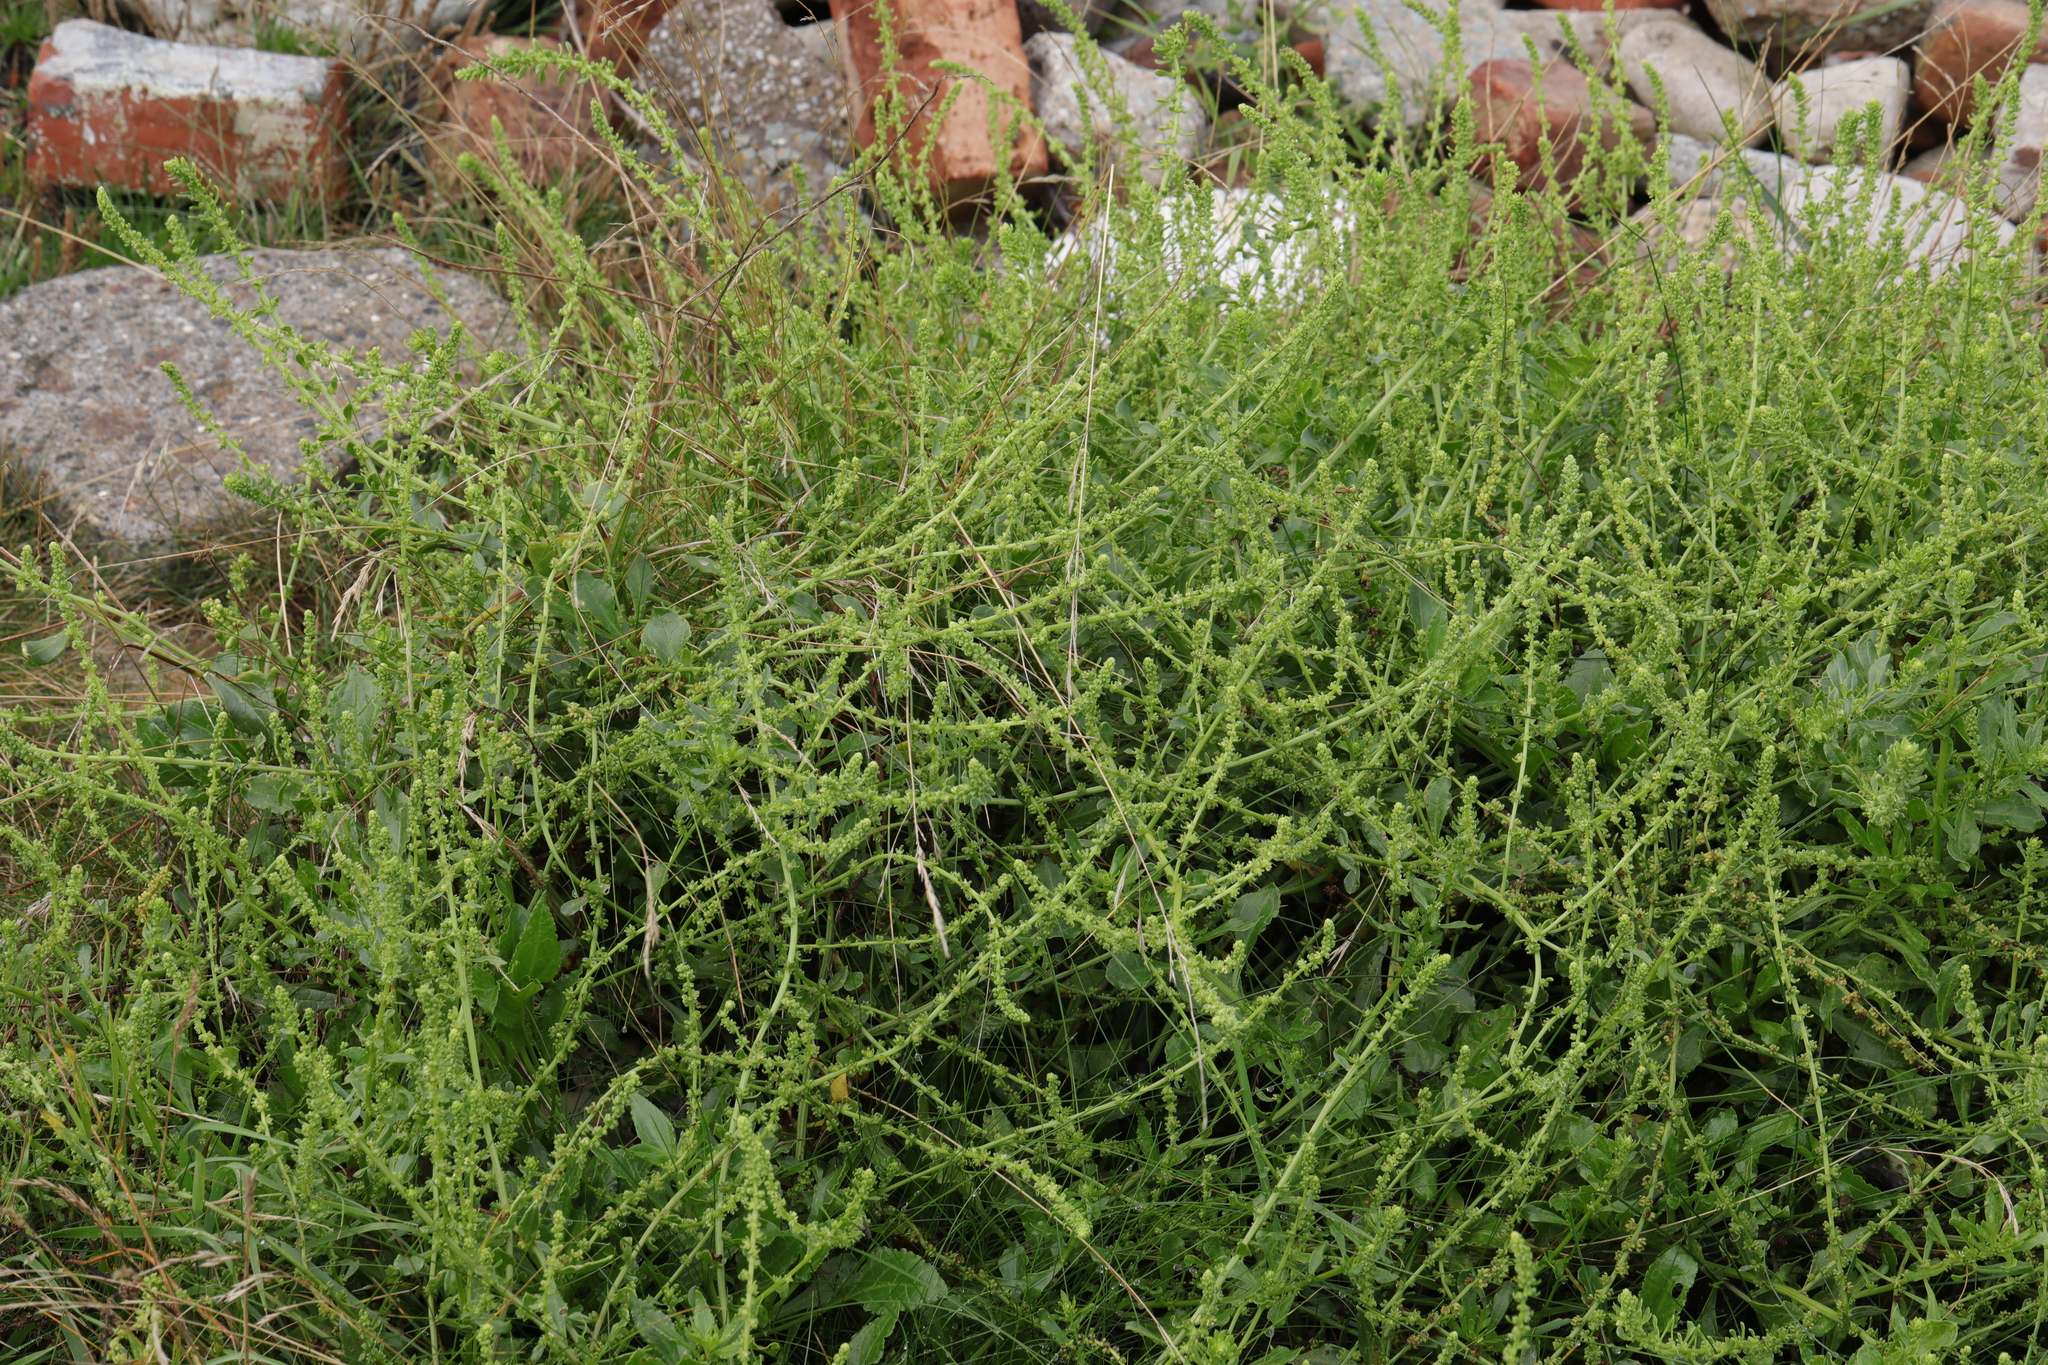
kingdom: Plantae
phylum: Tracheophyta
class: Magnoliopsida
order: Caryophyllales
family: Amaranthaceae
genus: Beta
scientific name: Beta vulgaris
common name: Beet
